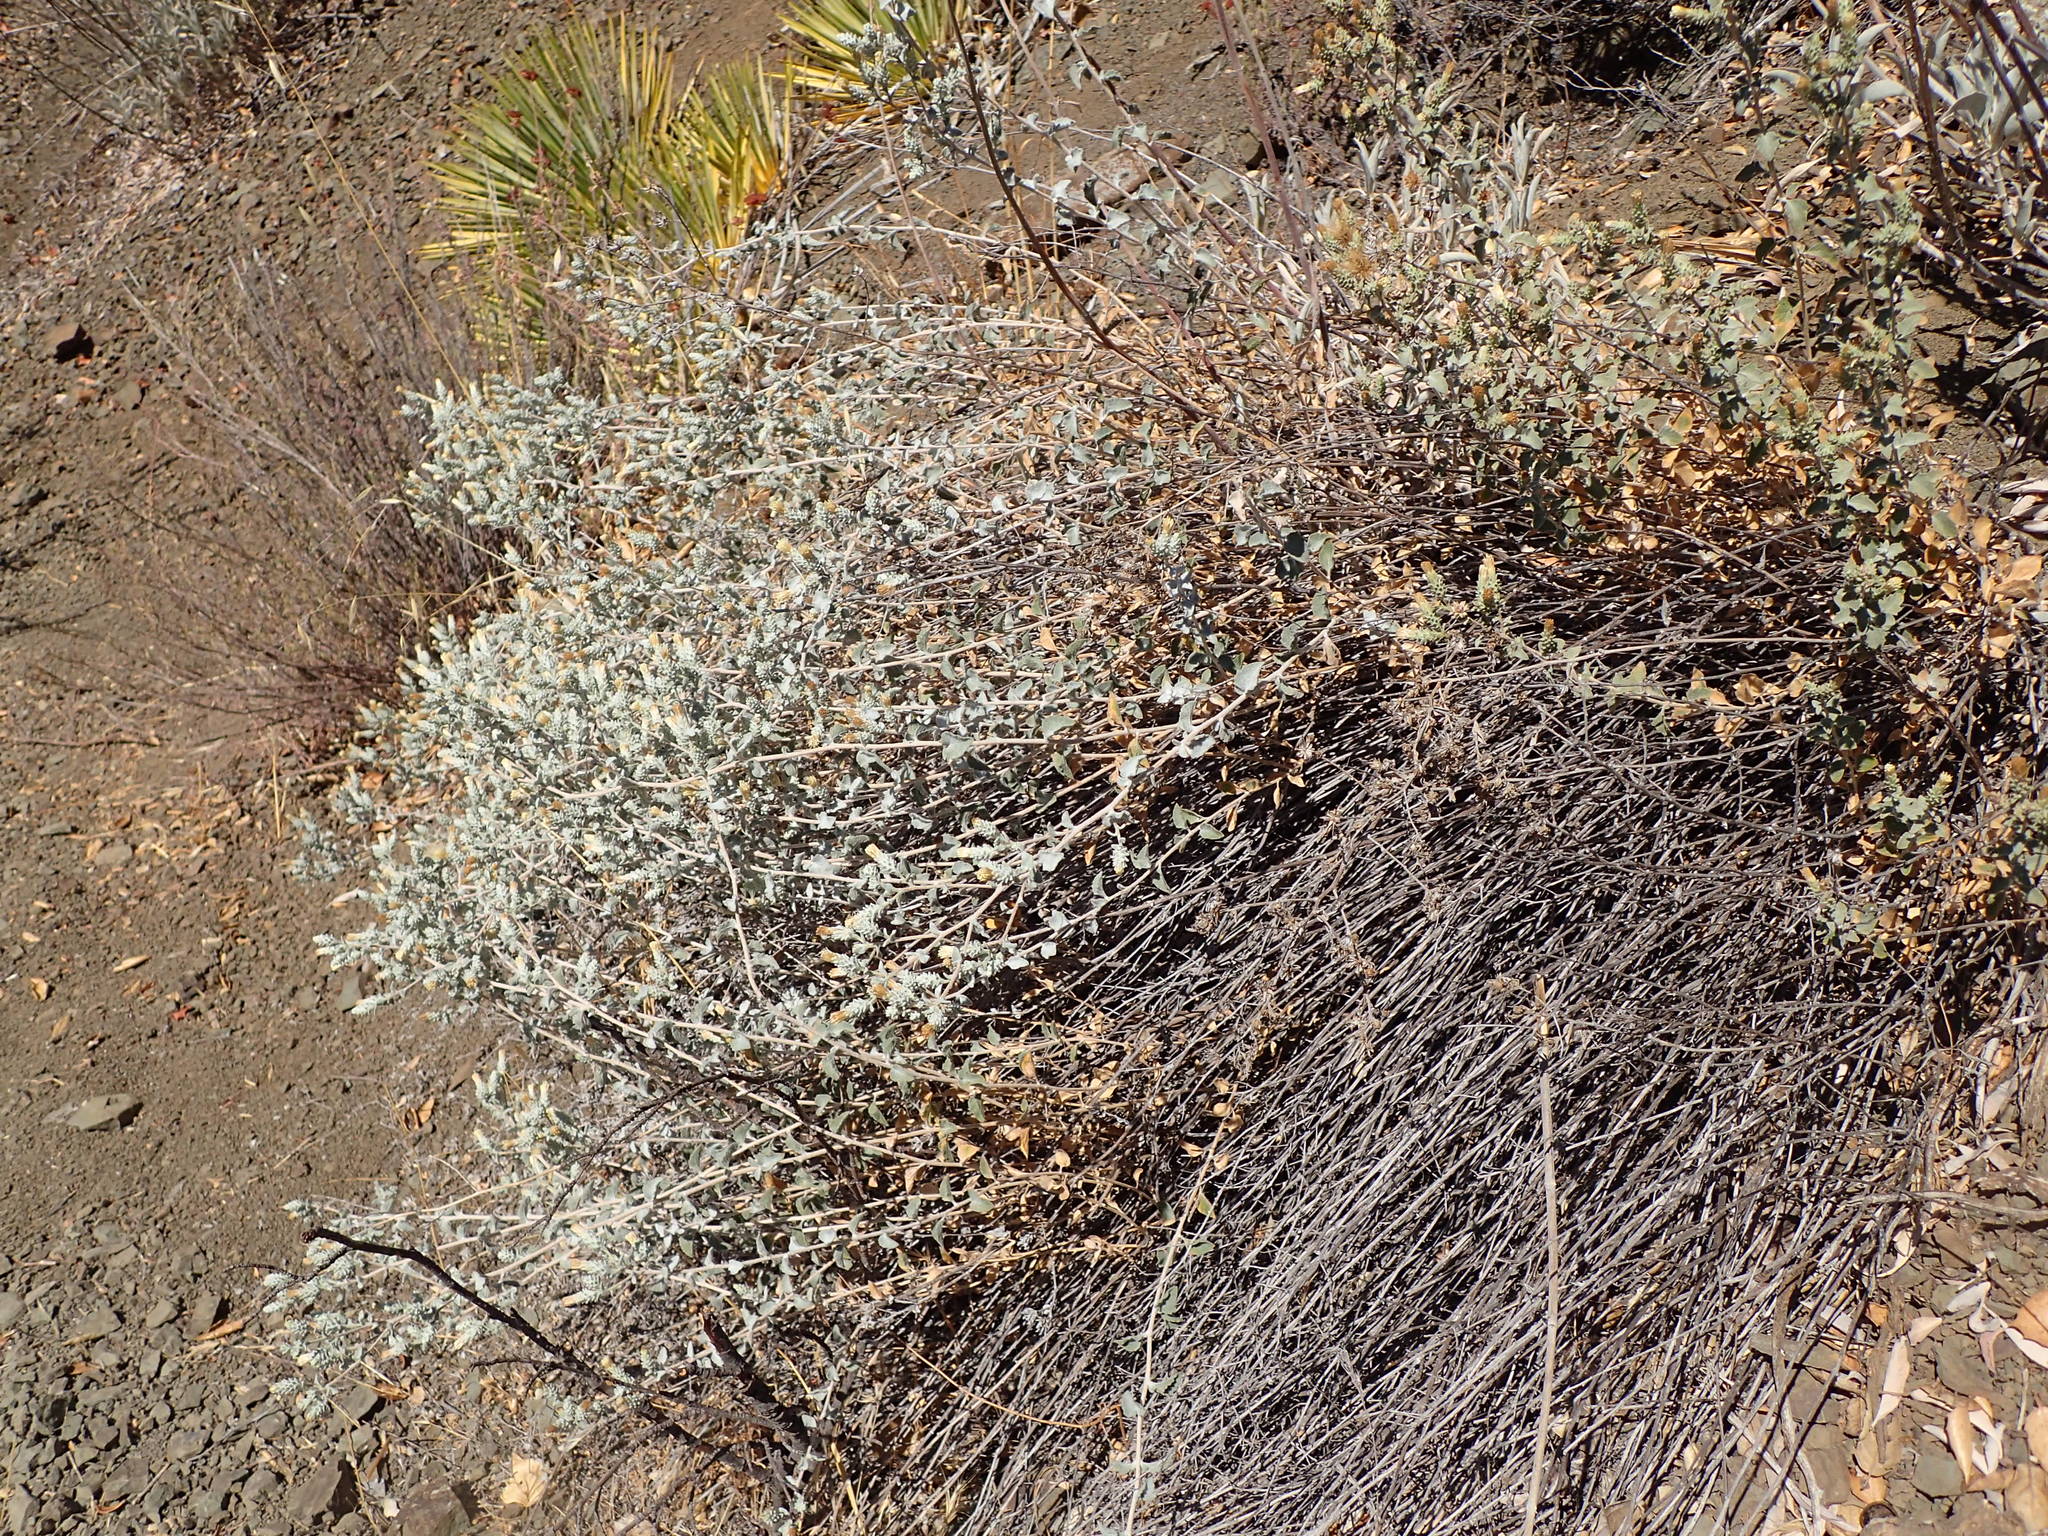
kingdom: Plantae
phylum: Tracheophyta
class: Magnoliopsida
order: Asterales
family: Asteraceae
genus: Brickellia
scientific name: Brickellia nevinii
